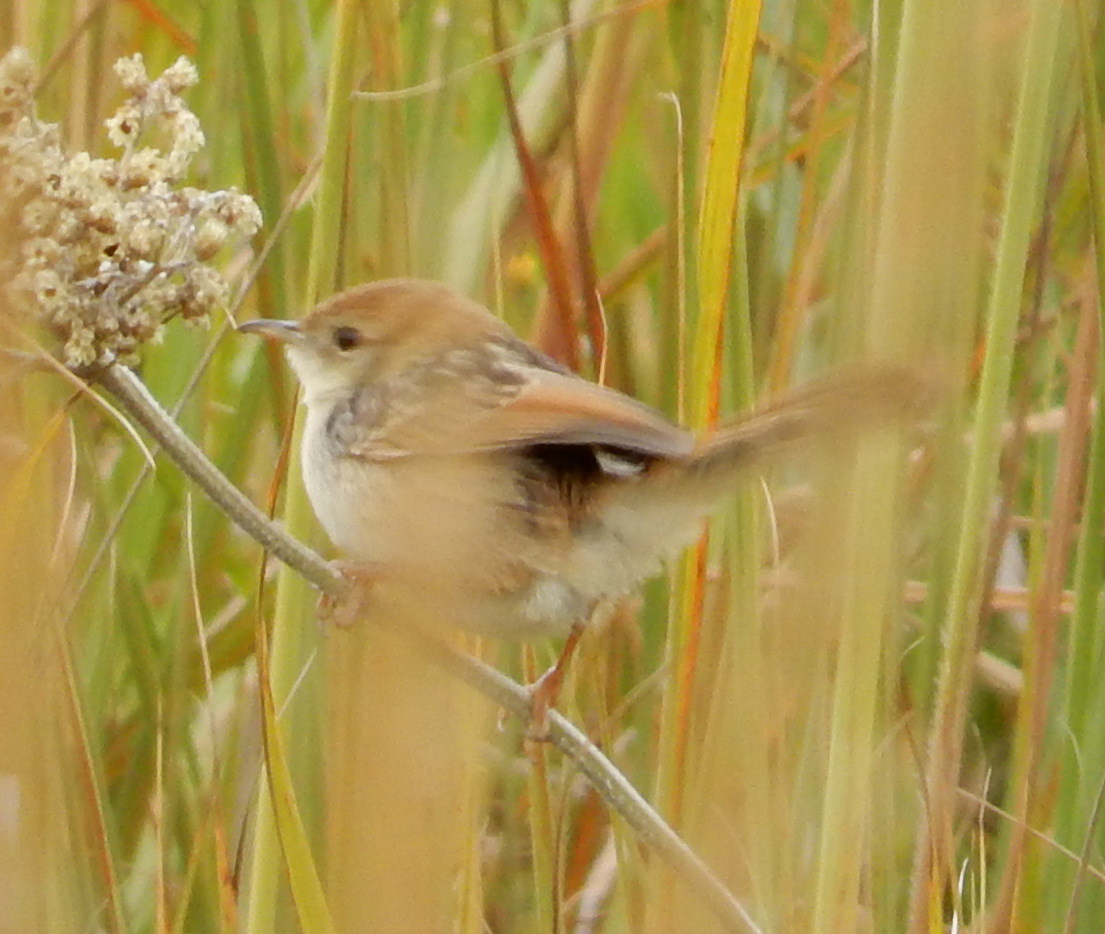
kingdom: Animalia
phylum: Chordata
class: Aves
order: Passeriformes
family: Cisticolidae
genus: Cisticola
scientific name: Cisticola tinniens
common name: Levaillant's cisticola
